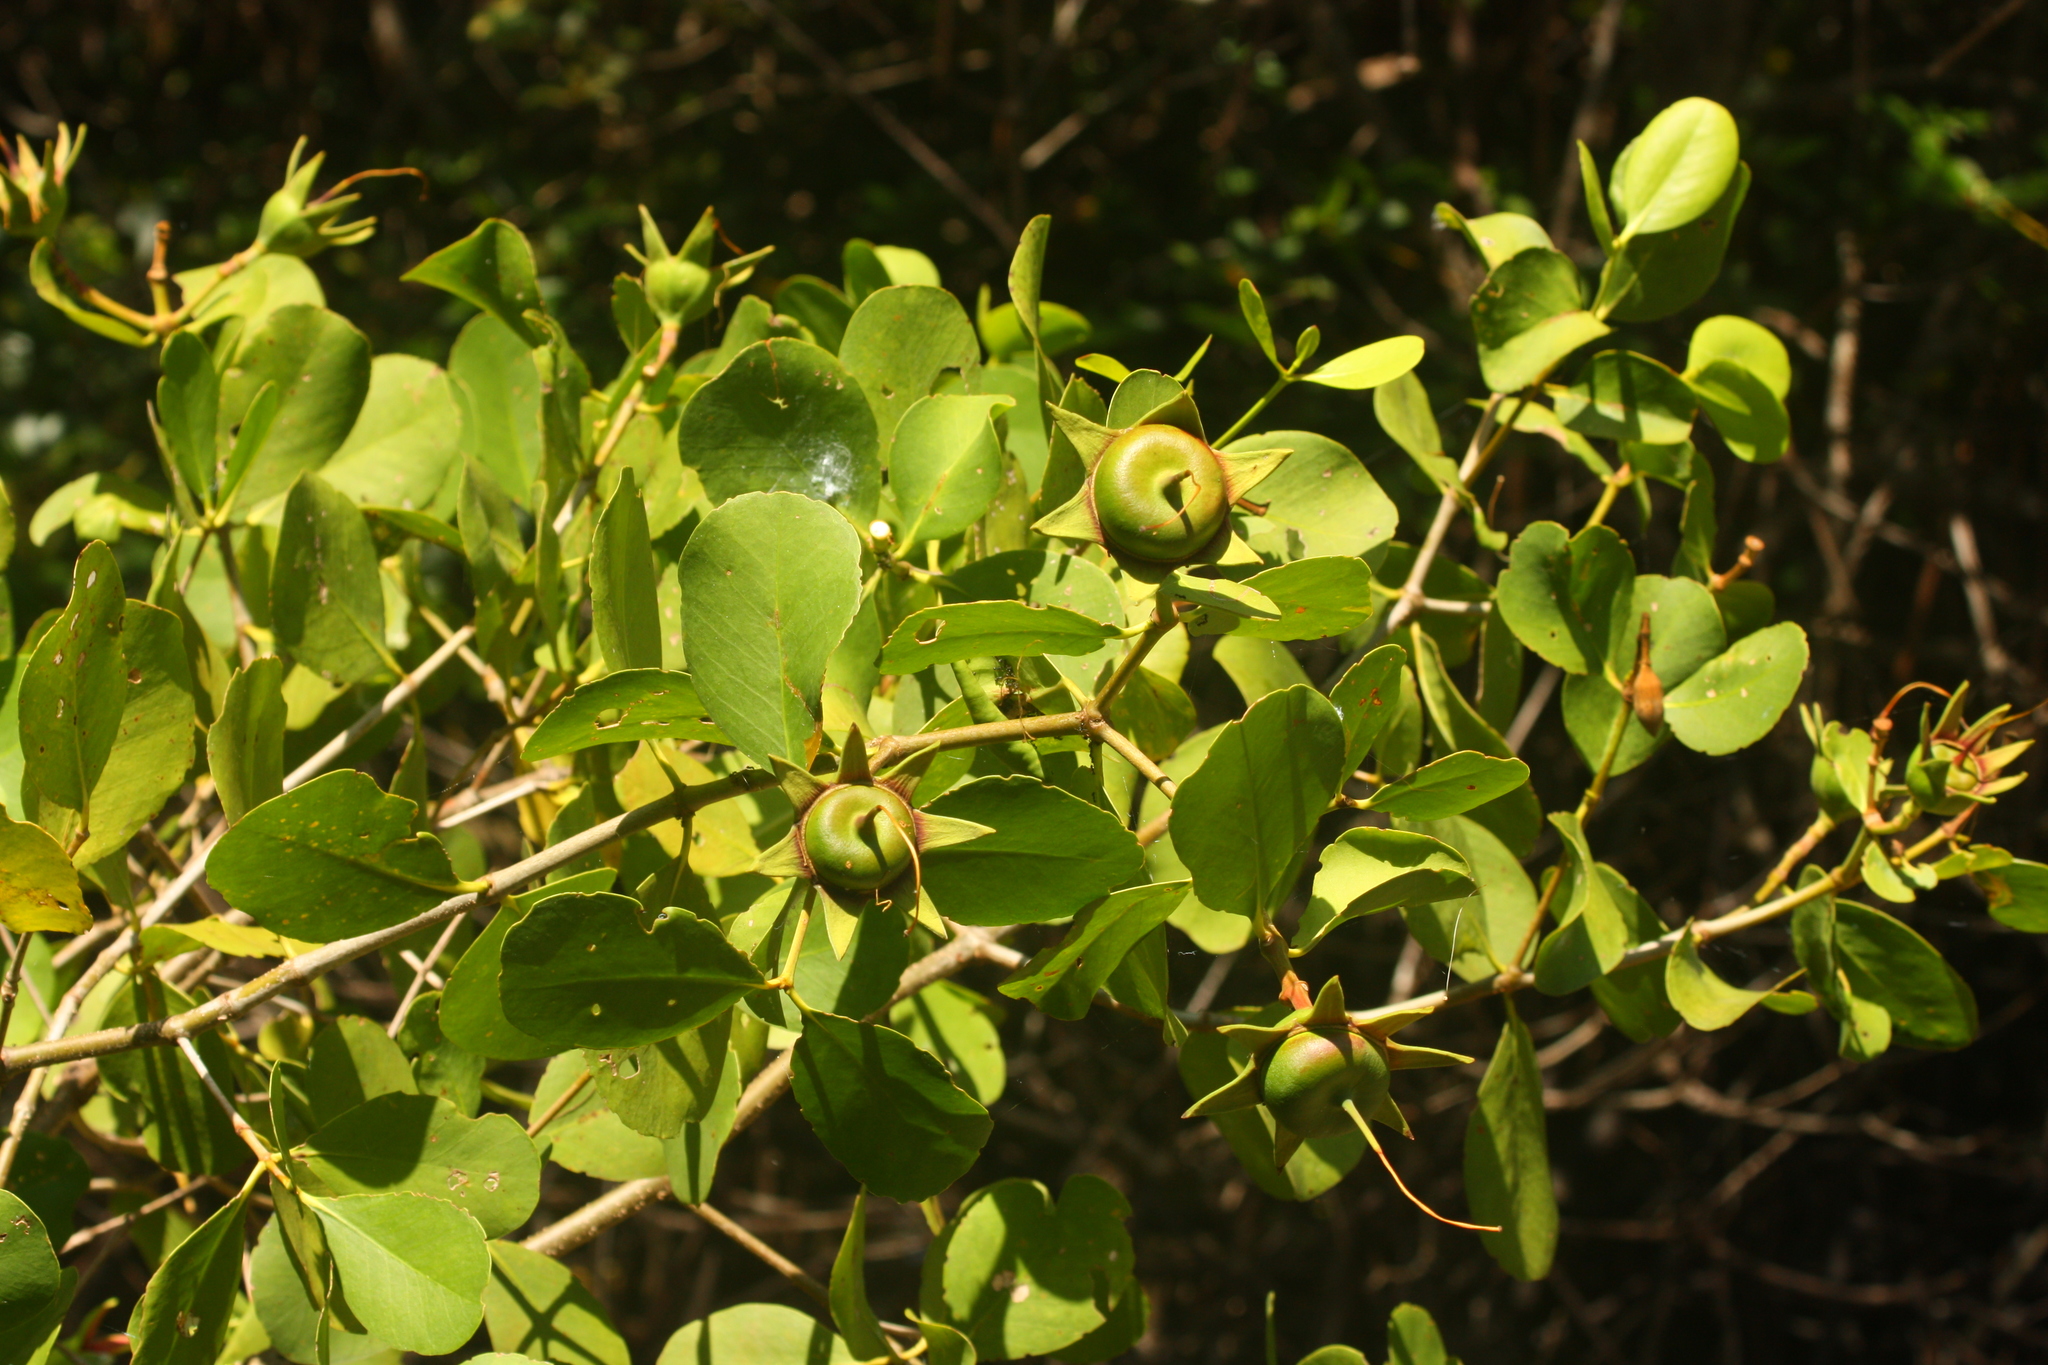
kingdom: Plantae
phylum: Tracheophyta
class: Magnoliopsida
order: Myrtales
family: Lythraceae
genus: Sonneratia
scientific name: Sonneratia caseolaris
